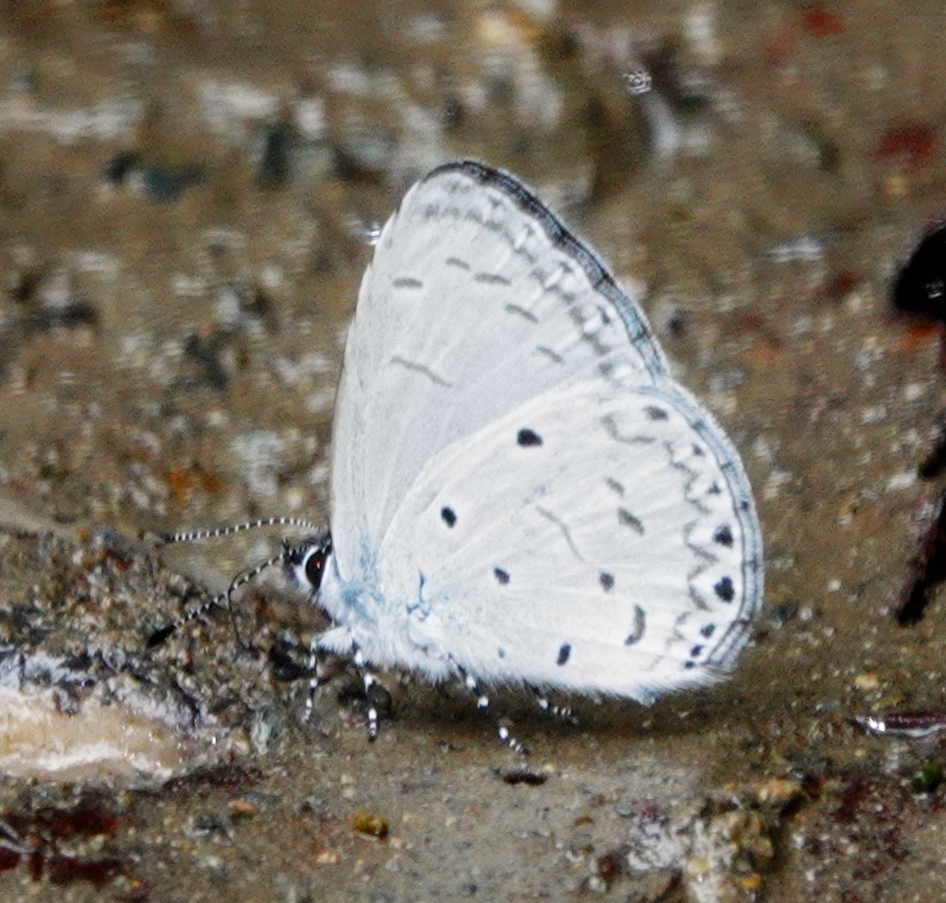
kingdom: Animalia
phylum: Arthropoda
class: Insecta
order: Lepidoptera
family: Lycaenidae
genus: Udara
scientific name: Udara
